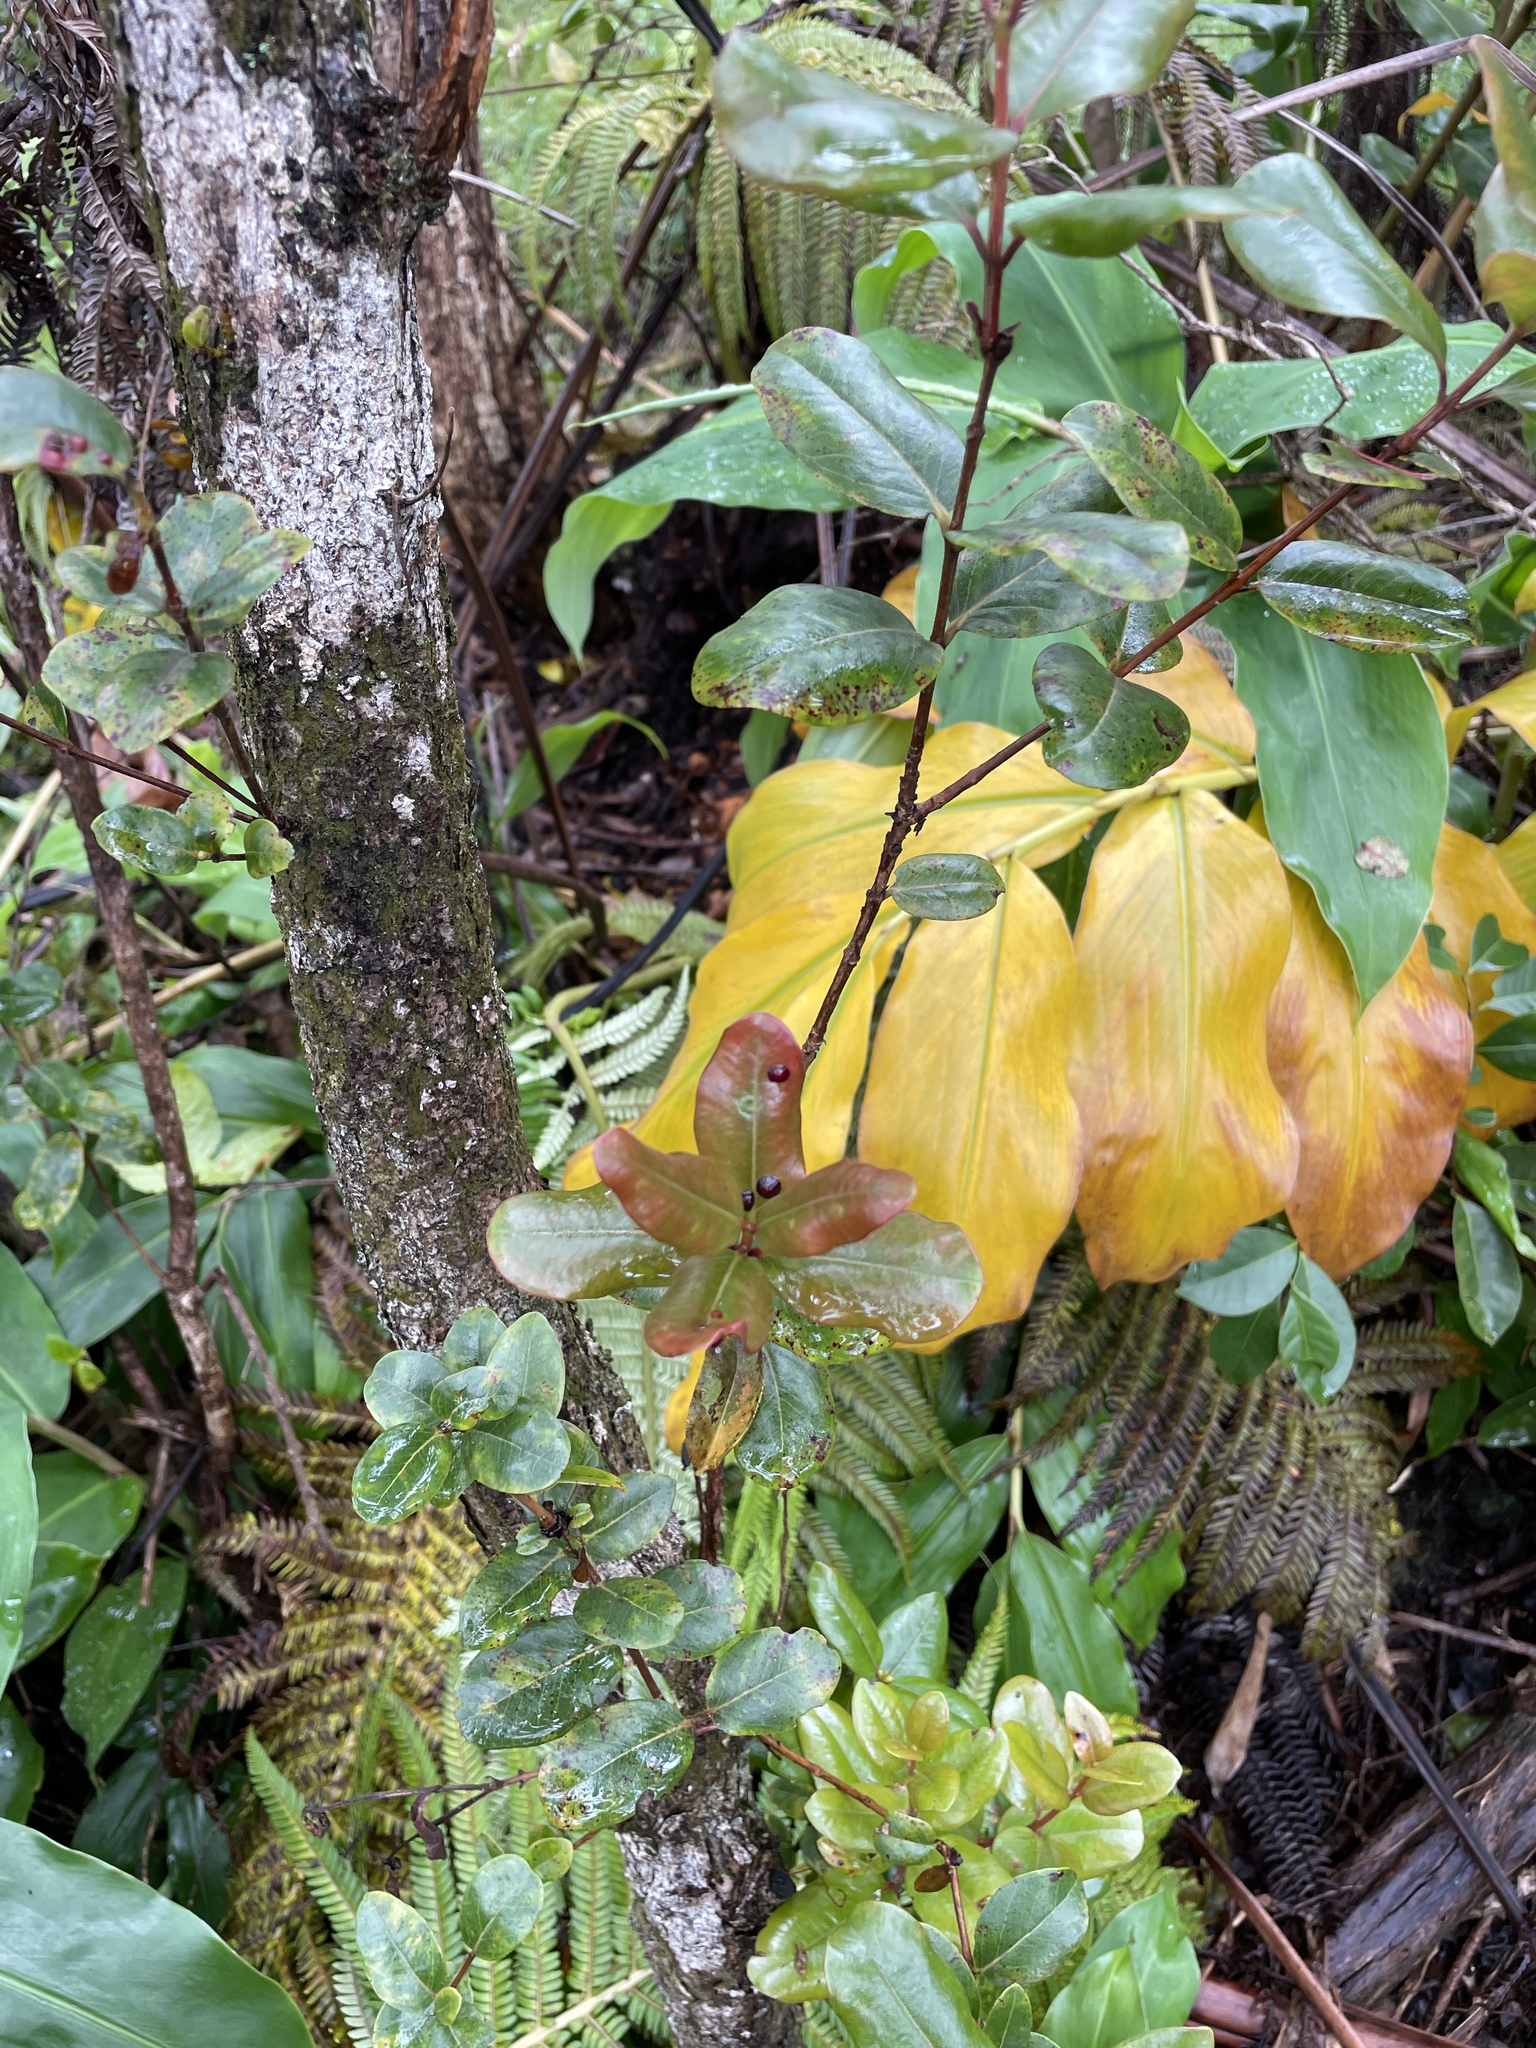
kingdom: Plantae
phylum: Tracheophyta
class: Magnoliopsida
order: Myrtales
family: Myrtaceae
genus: Metrosideros
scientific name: Metrosideros polymorpha
